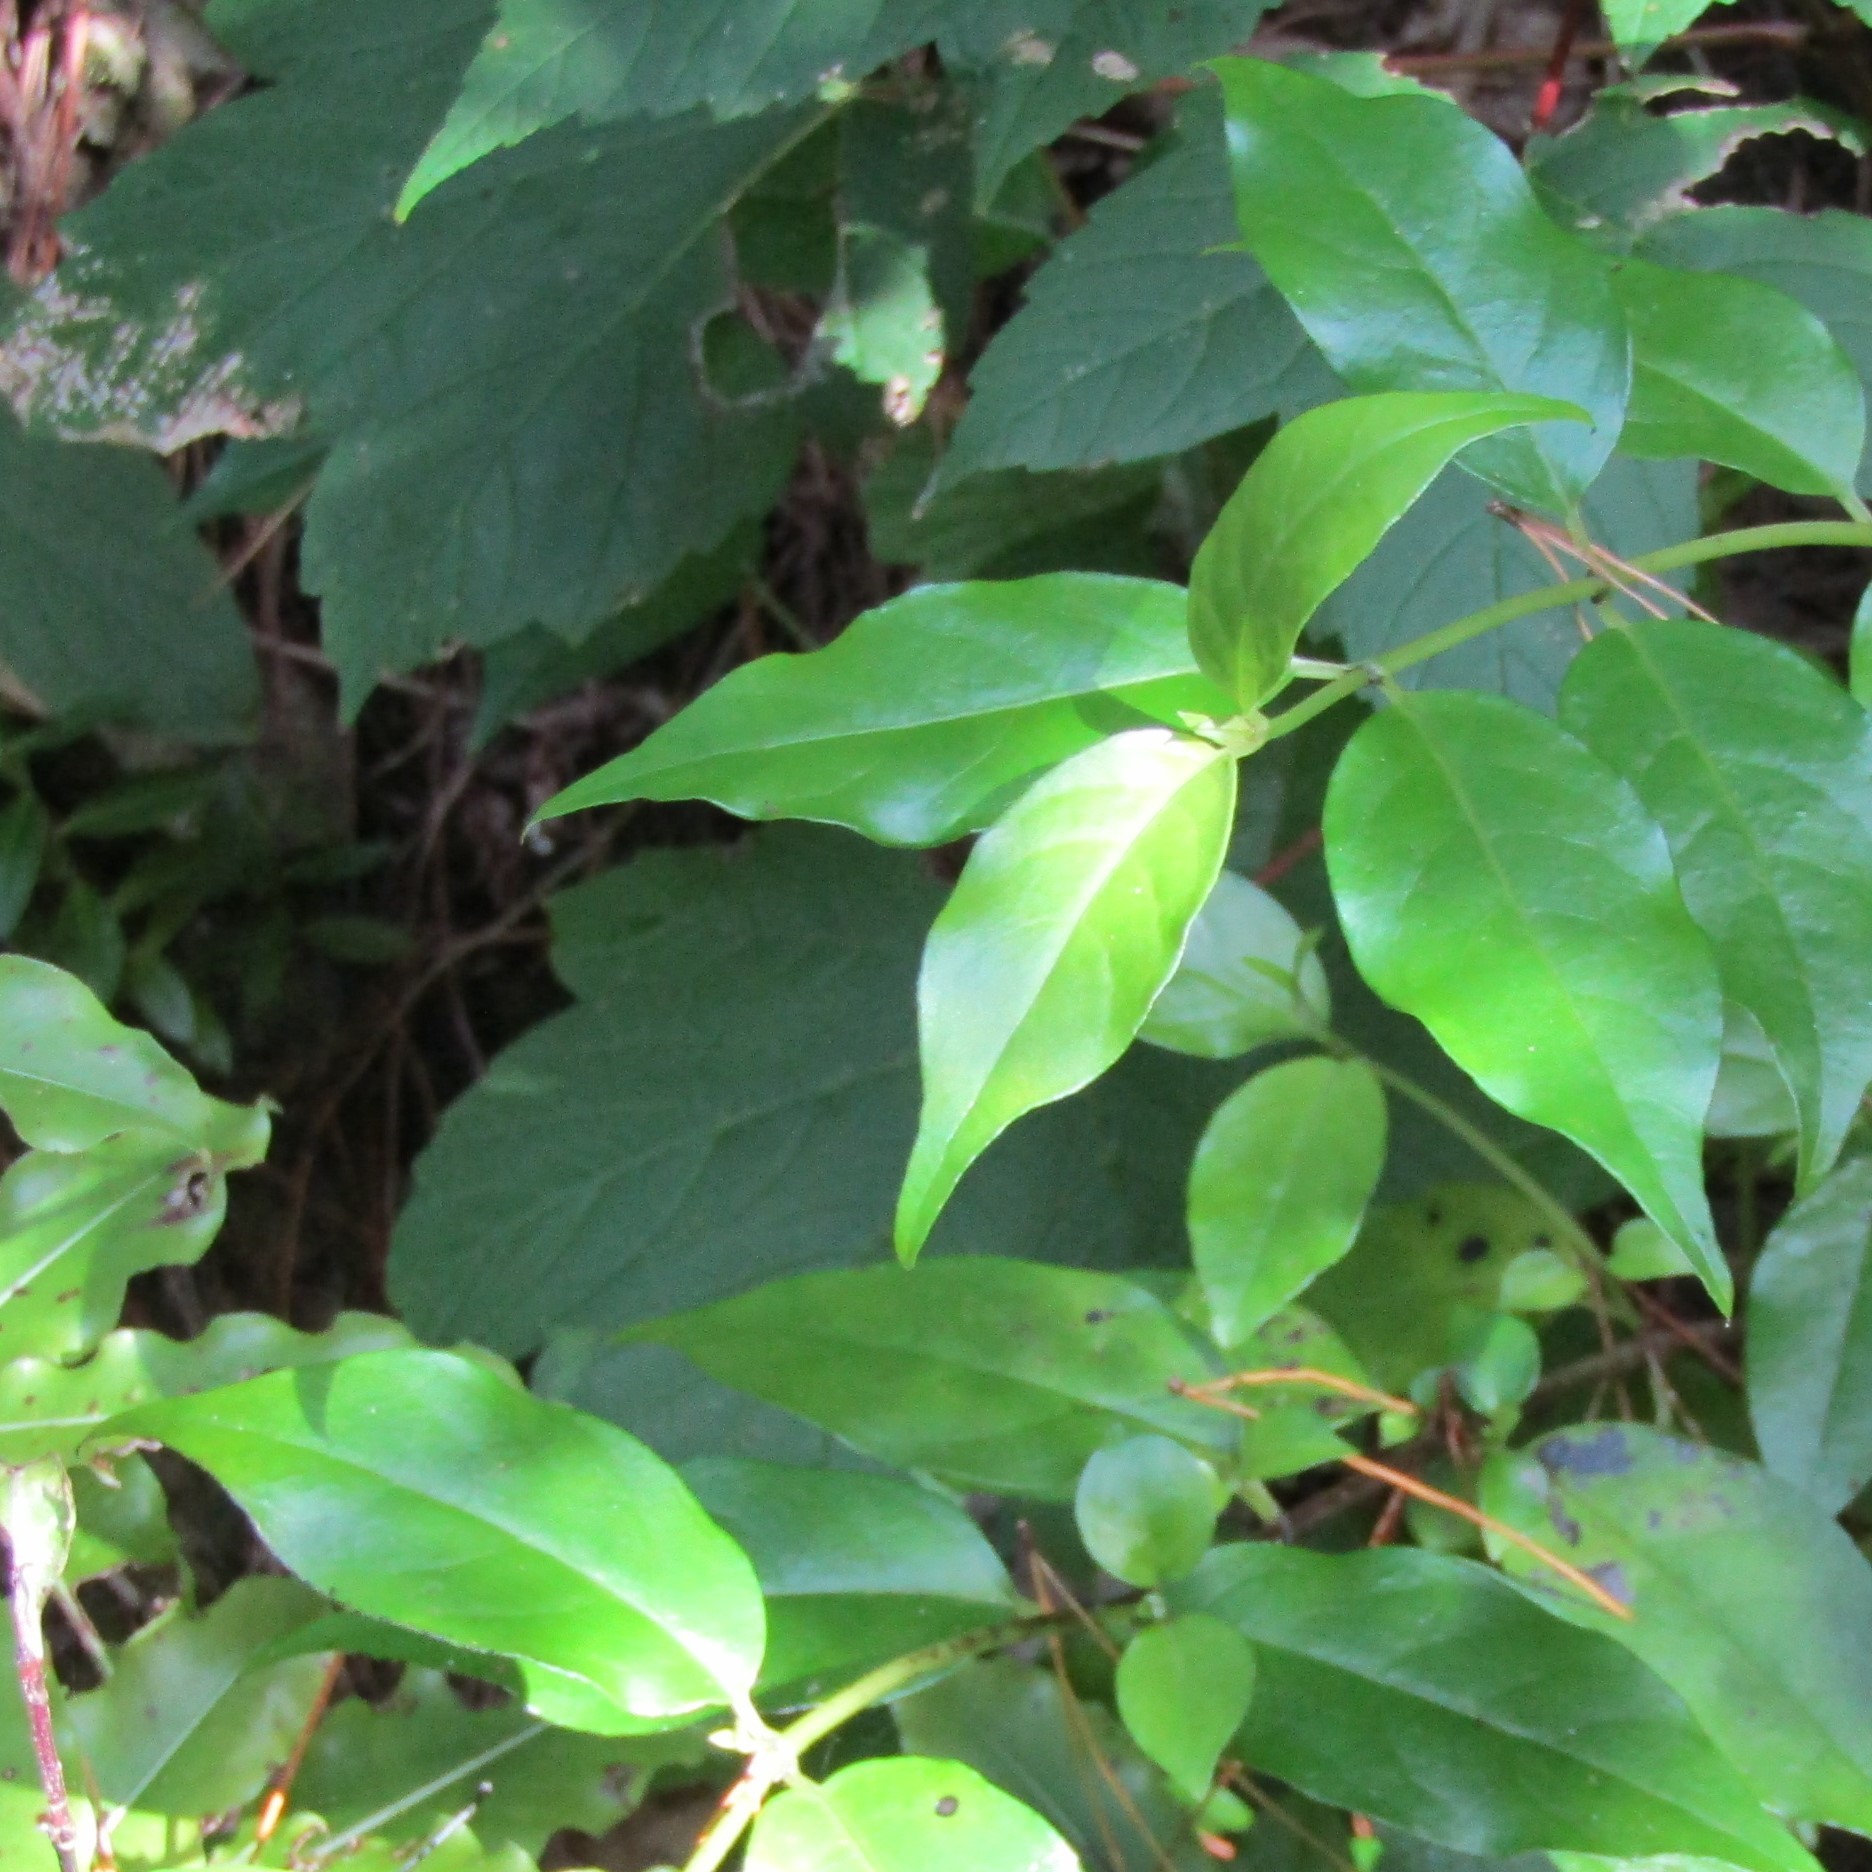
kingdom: Plantae
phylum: Tracheophyta
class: Magnoliopsida
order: Sapindales
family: Sapindaceae
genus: Acer
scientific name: Acer pseudoplatanus
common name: Sycamore
